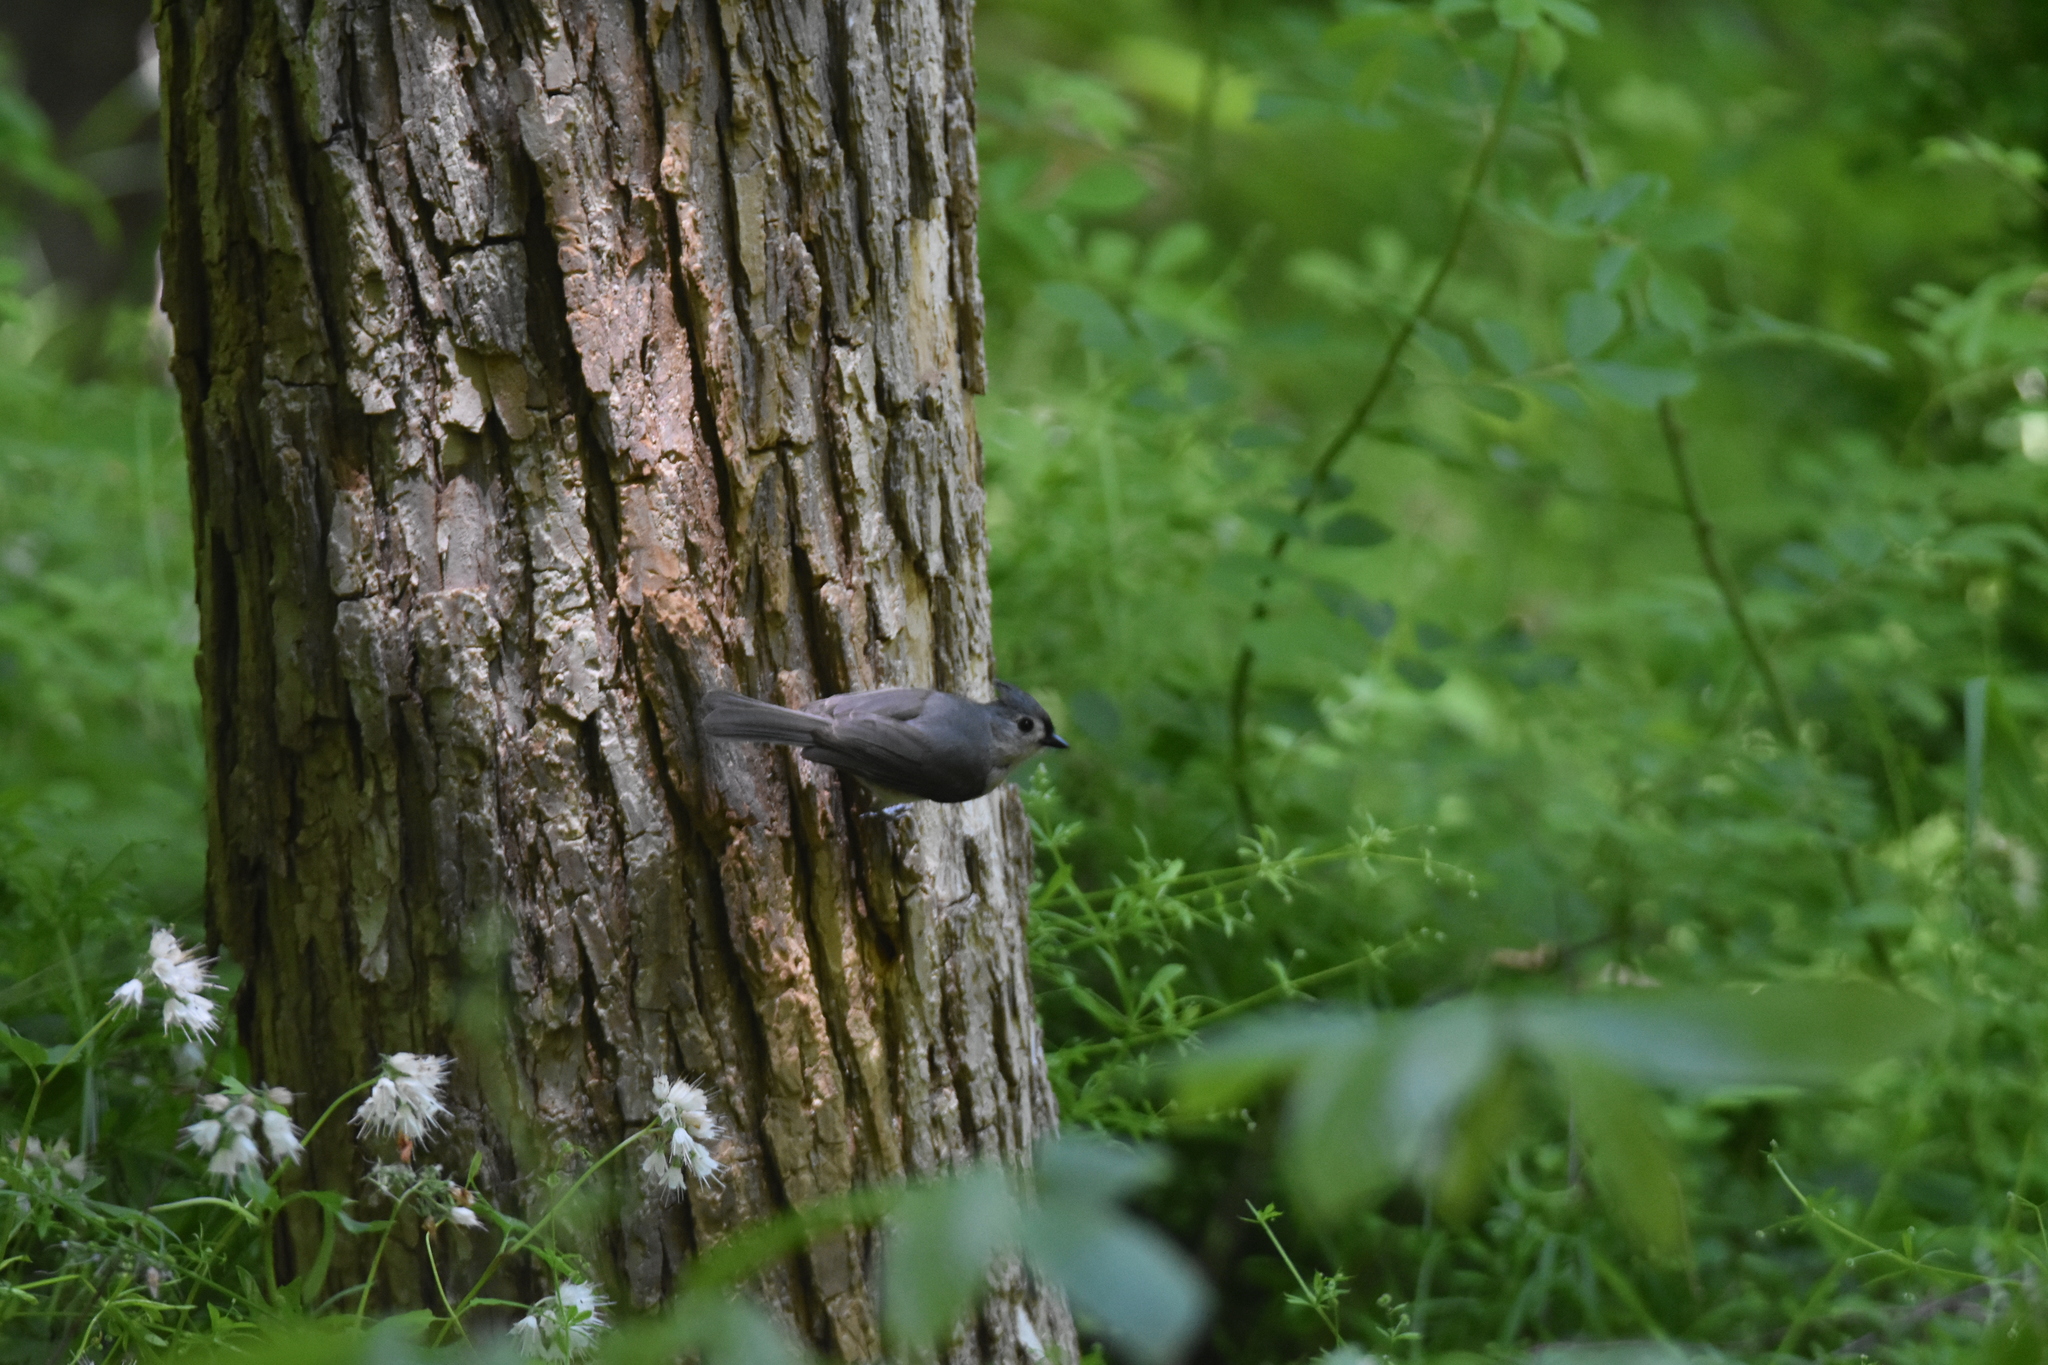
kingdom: Animalia
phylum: Chordata
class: Aves
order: Passeriformes
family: Paridae
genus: Baeolophus
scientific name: Baeolophus bicolor
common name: Tufted titmouse
